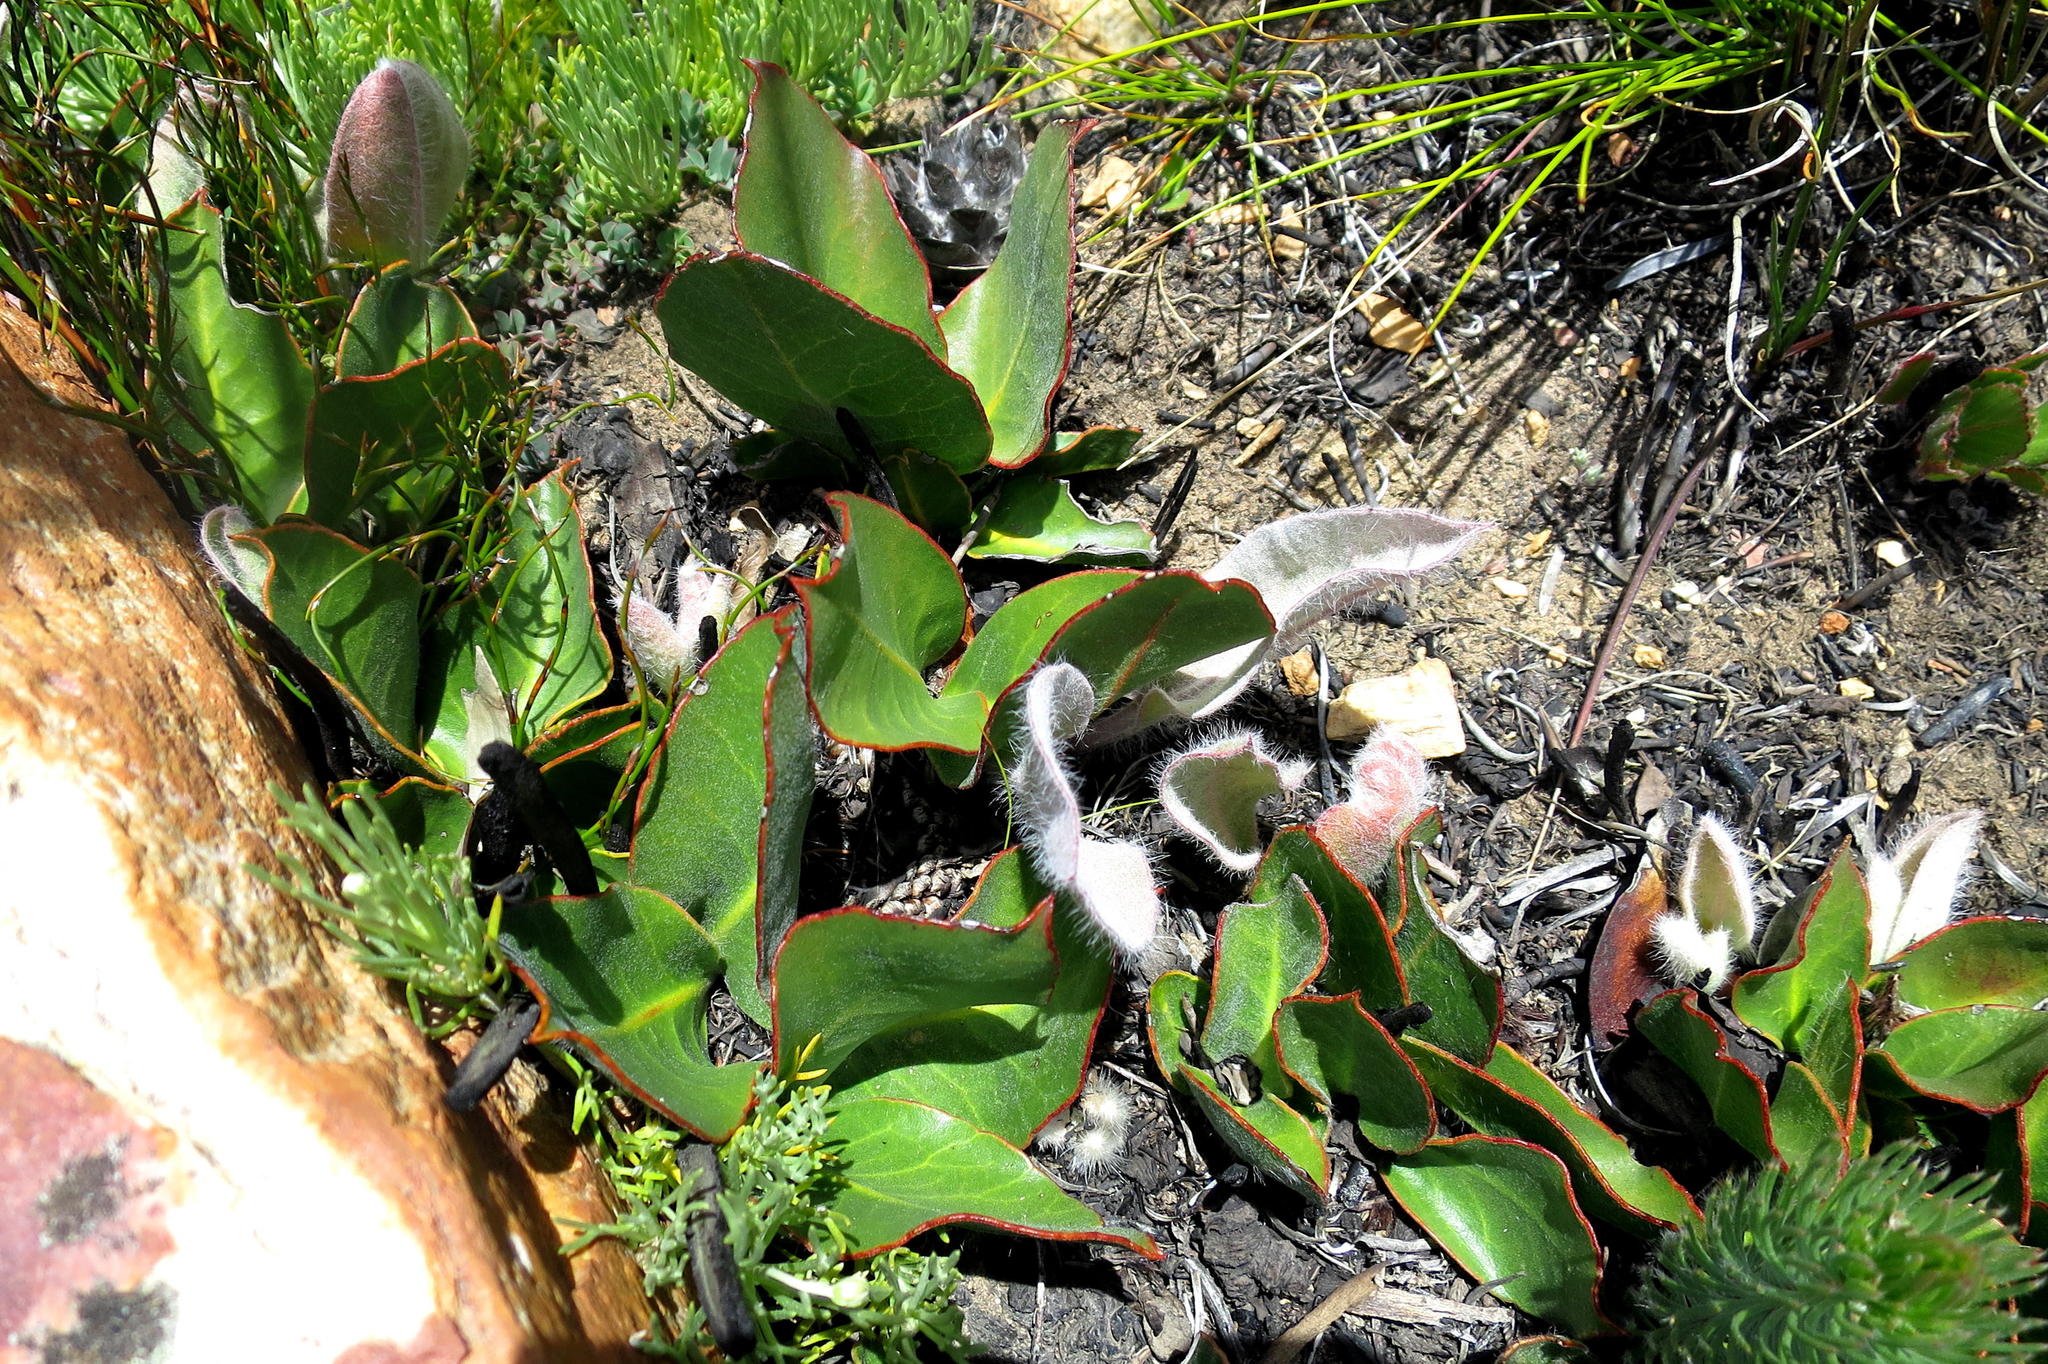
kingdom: Plantae
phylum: Tracheophyta
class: Magnoliopsida
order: Proteales
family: Proteaceae
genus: Protea
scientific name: Protea scolopendriifolia
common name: Harts-tongue-fern sugarbush
